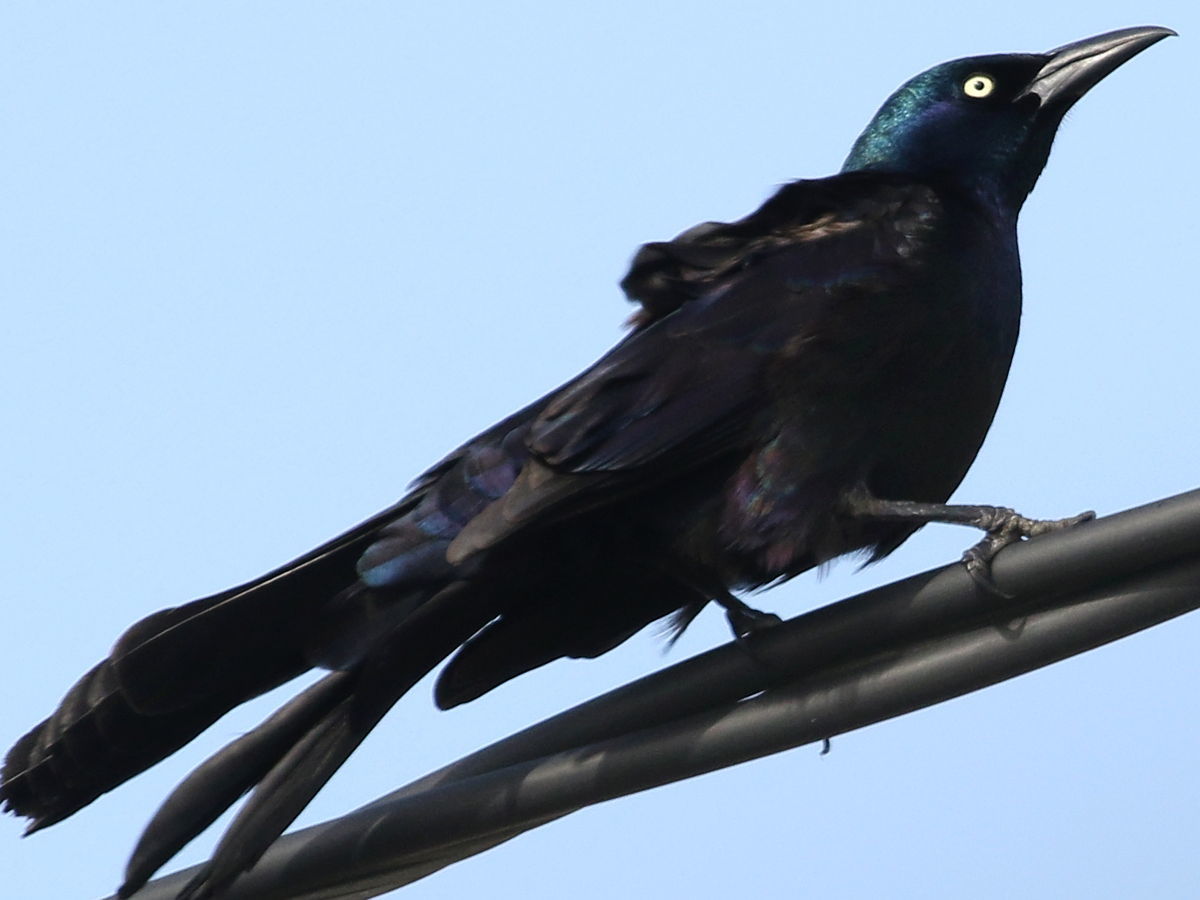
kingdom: Animalia
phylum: Chordata
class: Aves
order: Passeriformes
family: Icteridae
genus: Quiscalus
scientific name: Quiscalus major
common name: Boat-tailed grackle
